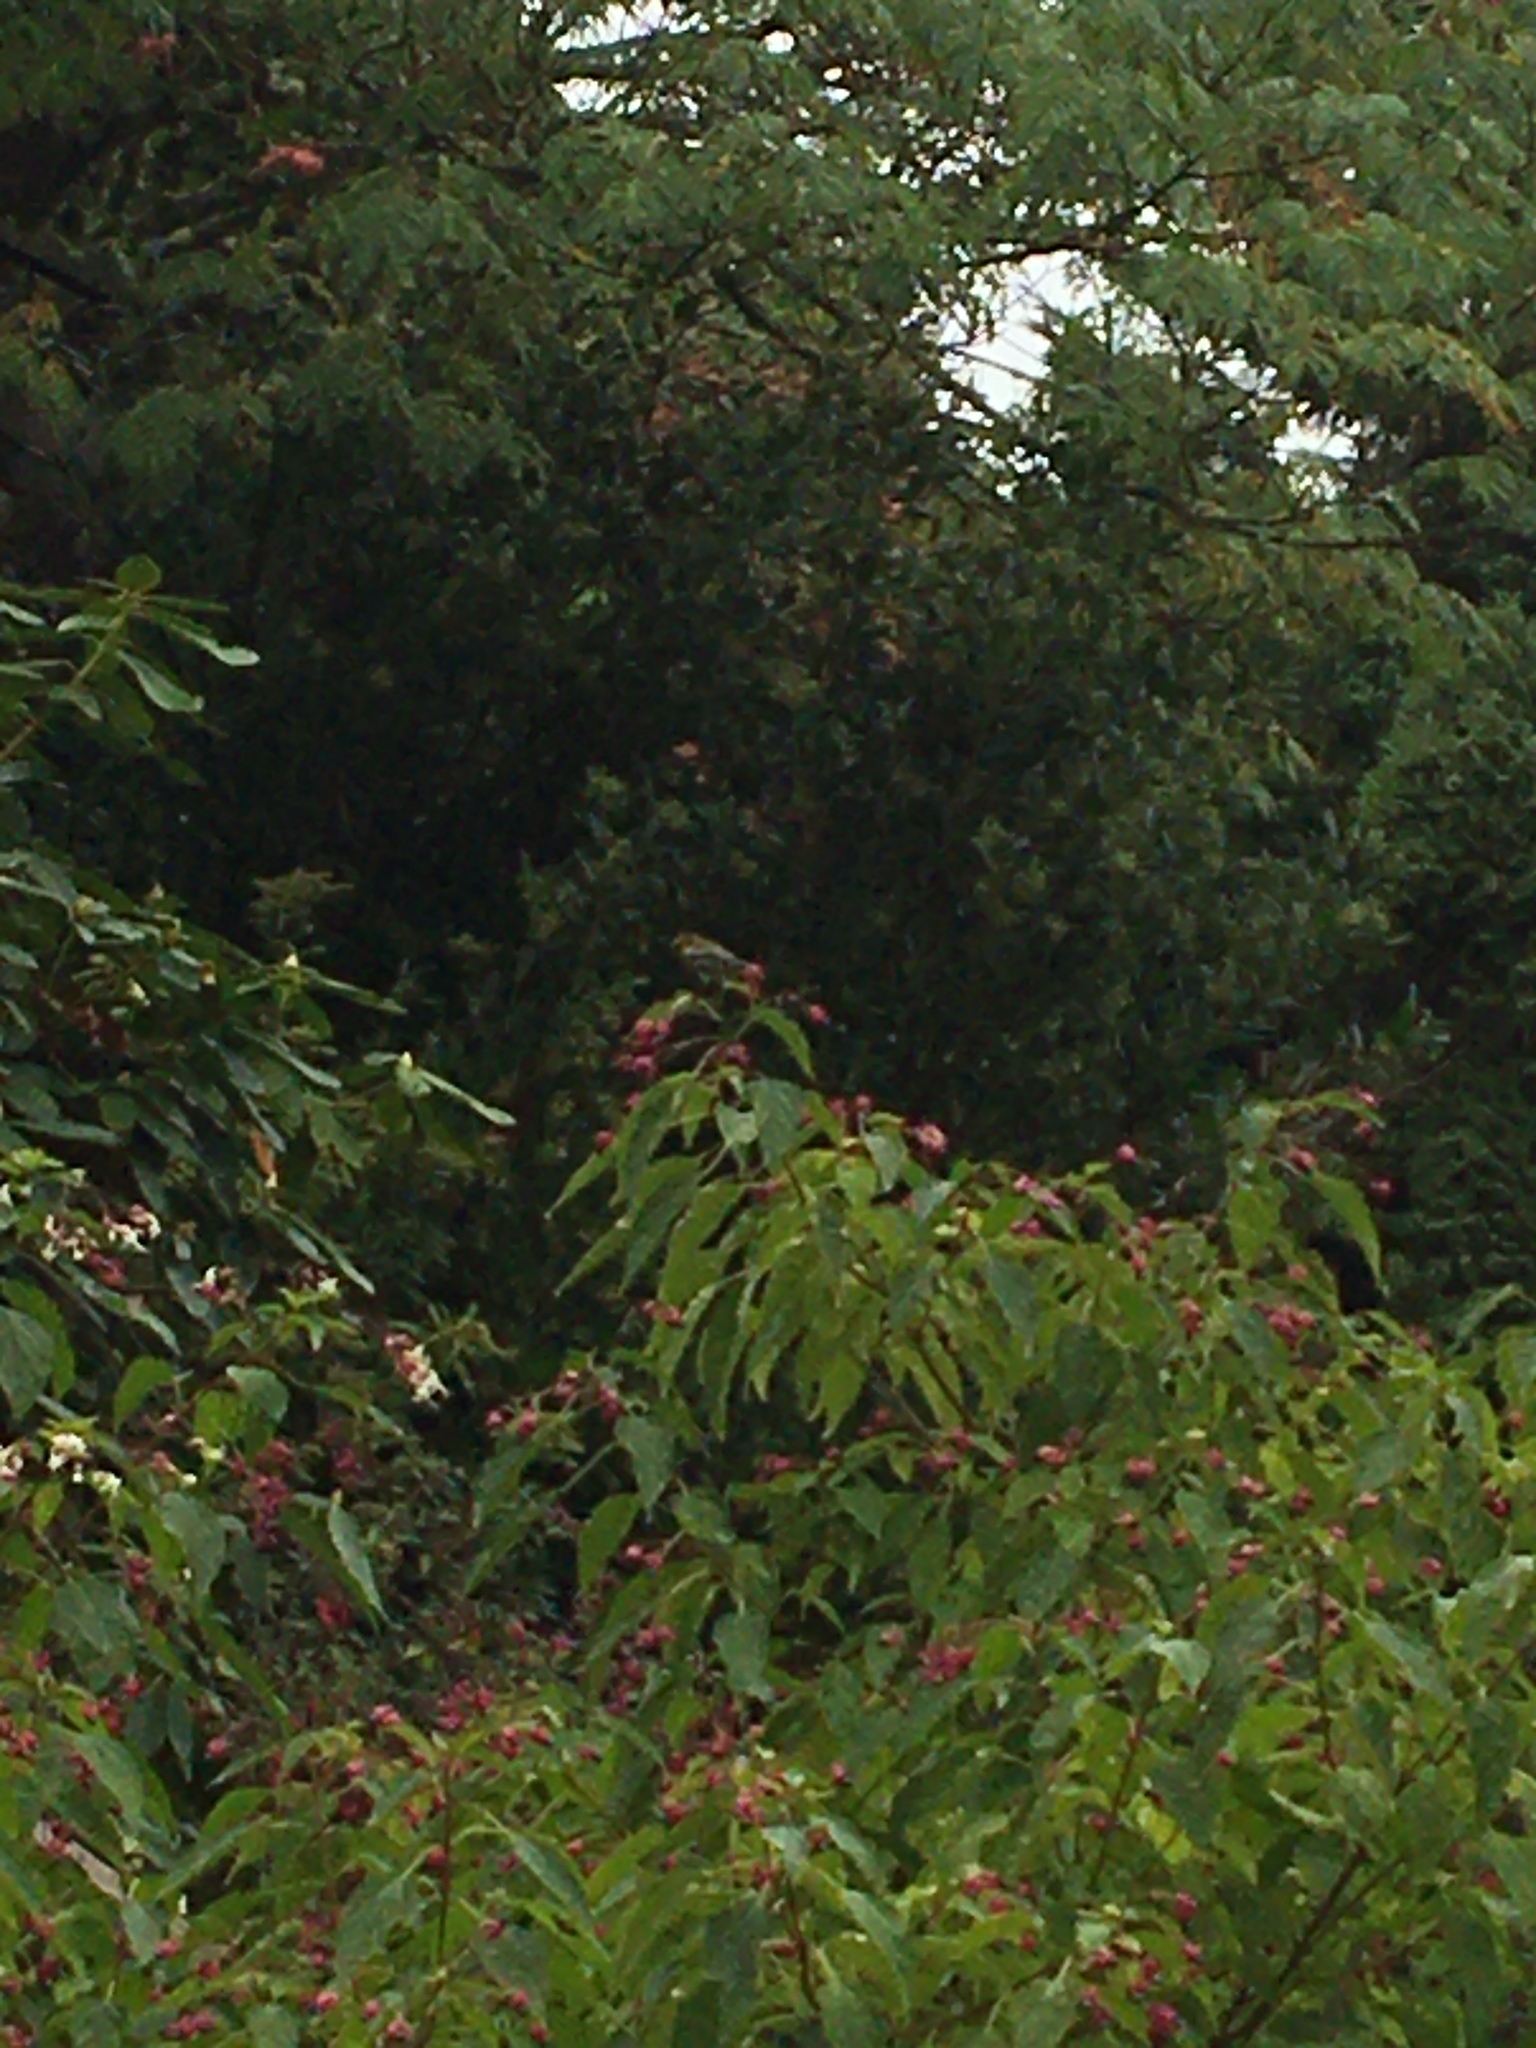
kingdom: Animalia
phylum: Chordata
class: Aves
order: Passeriformes
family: Parulidae
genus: Setophaga
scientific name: Setophaga townsendi
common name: Townsend's warbler
